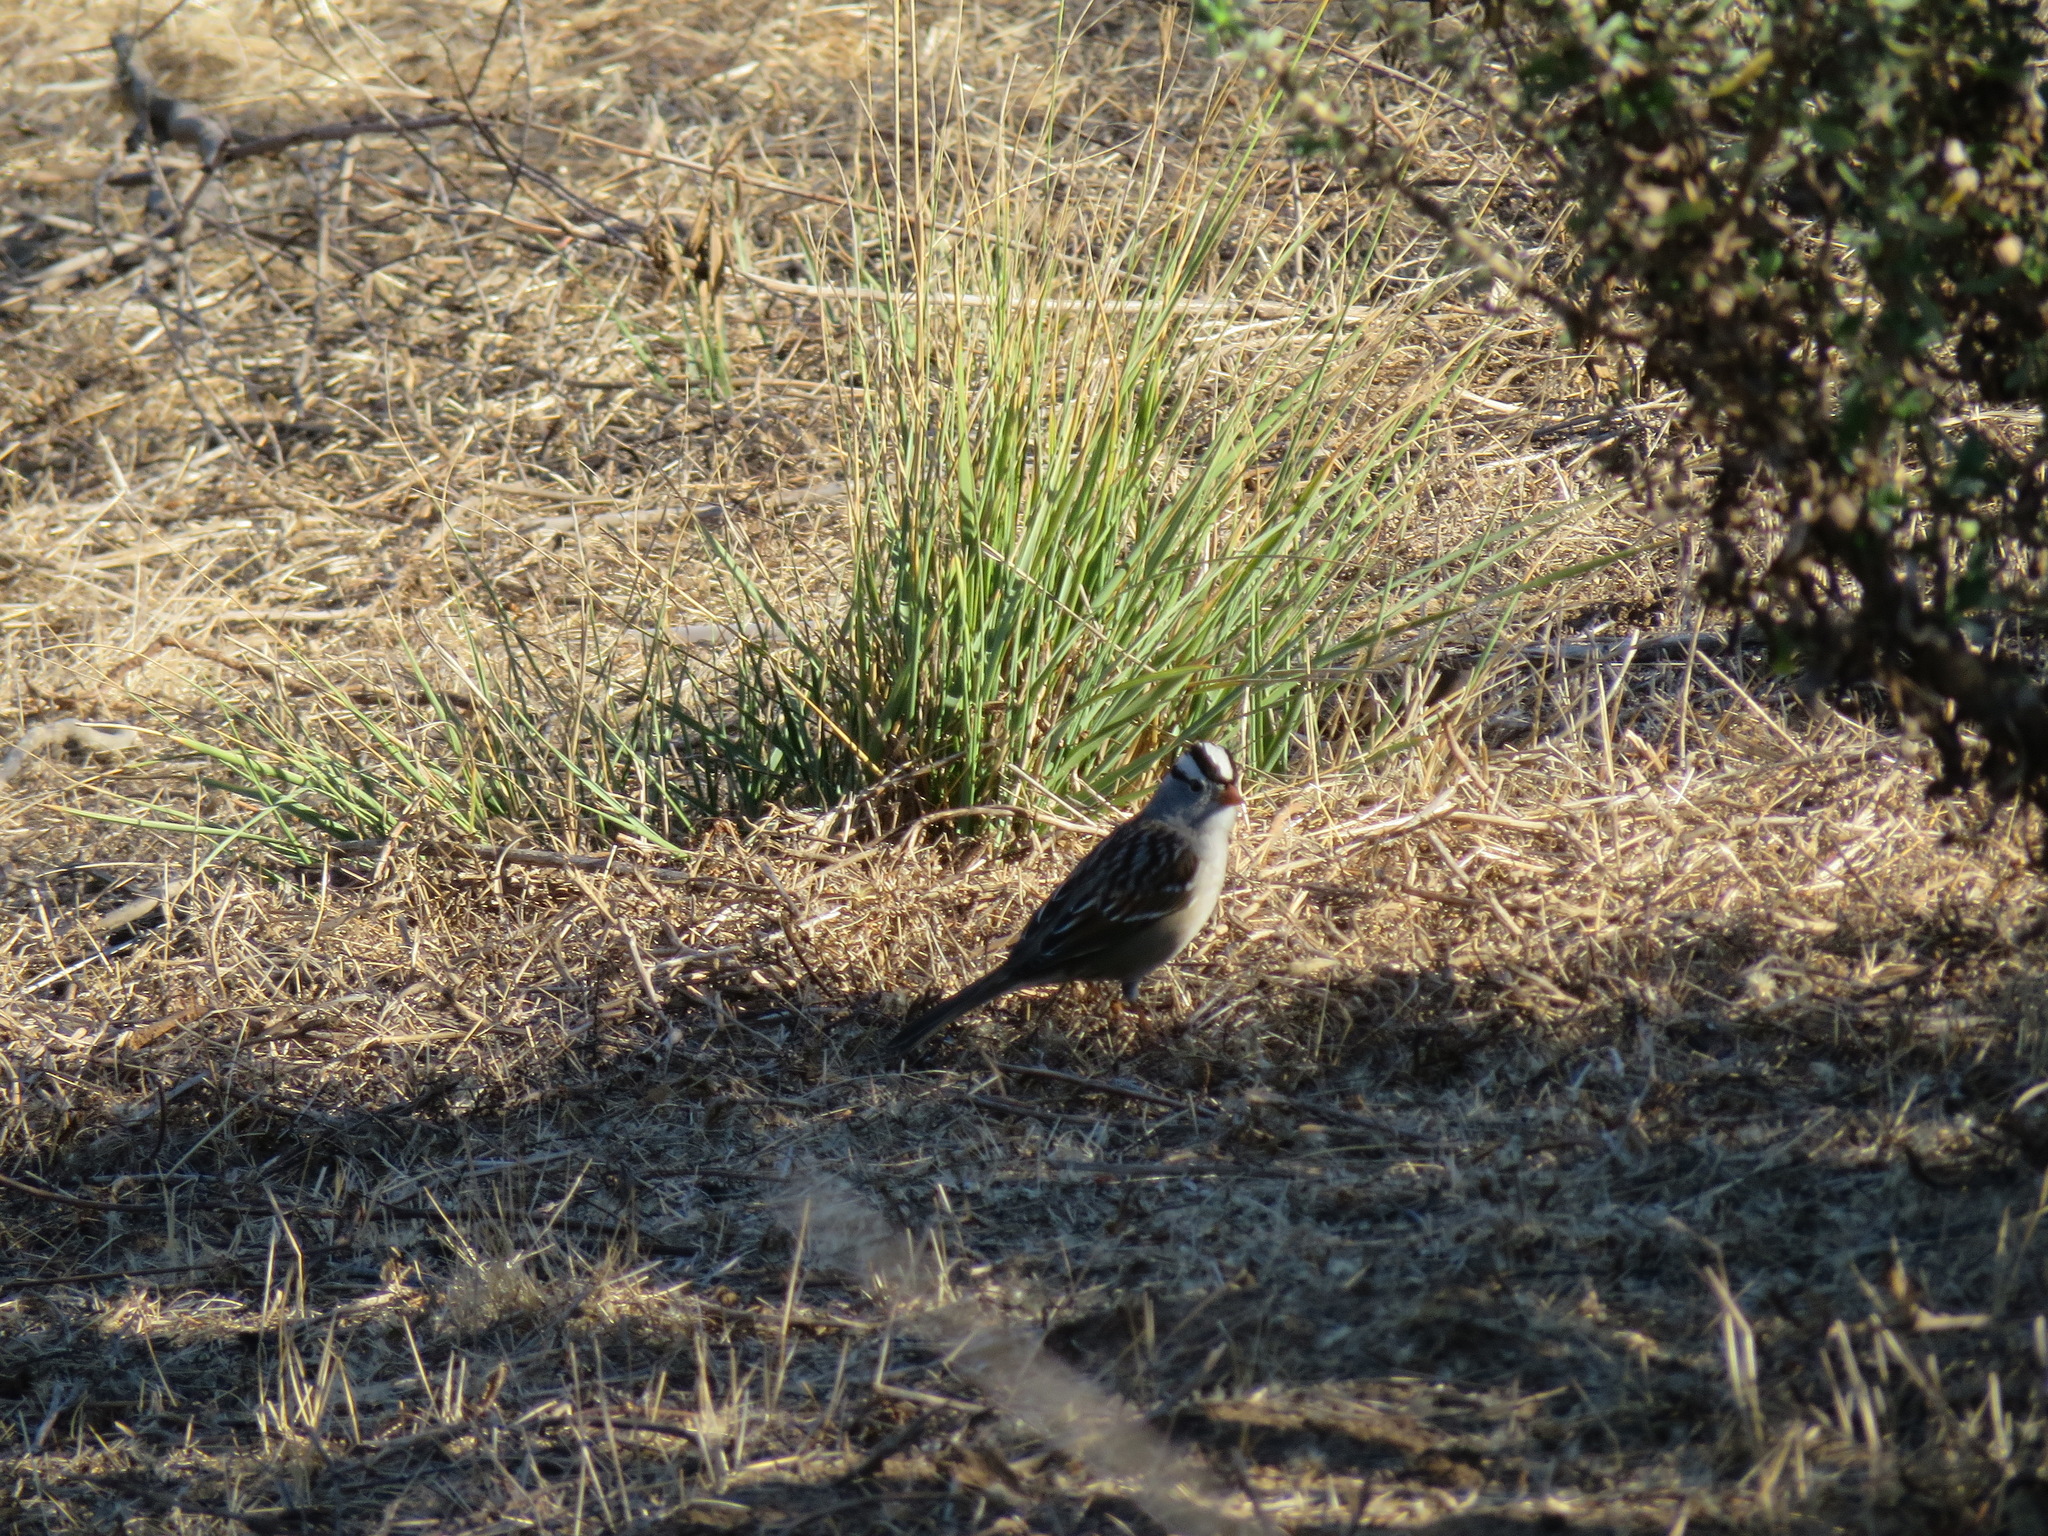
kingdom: Animalia
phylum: Chordata
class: Aves
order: Passeriformes
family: Passerellidae
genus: Zonotrichia
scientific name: Zonotrichia leucophrys
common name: White-crowned sparrow
